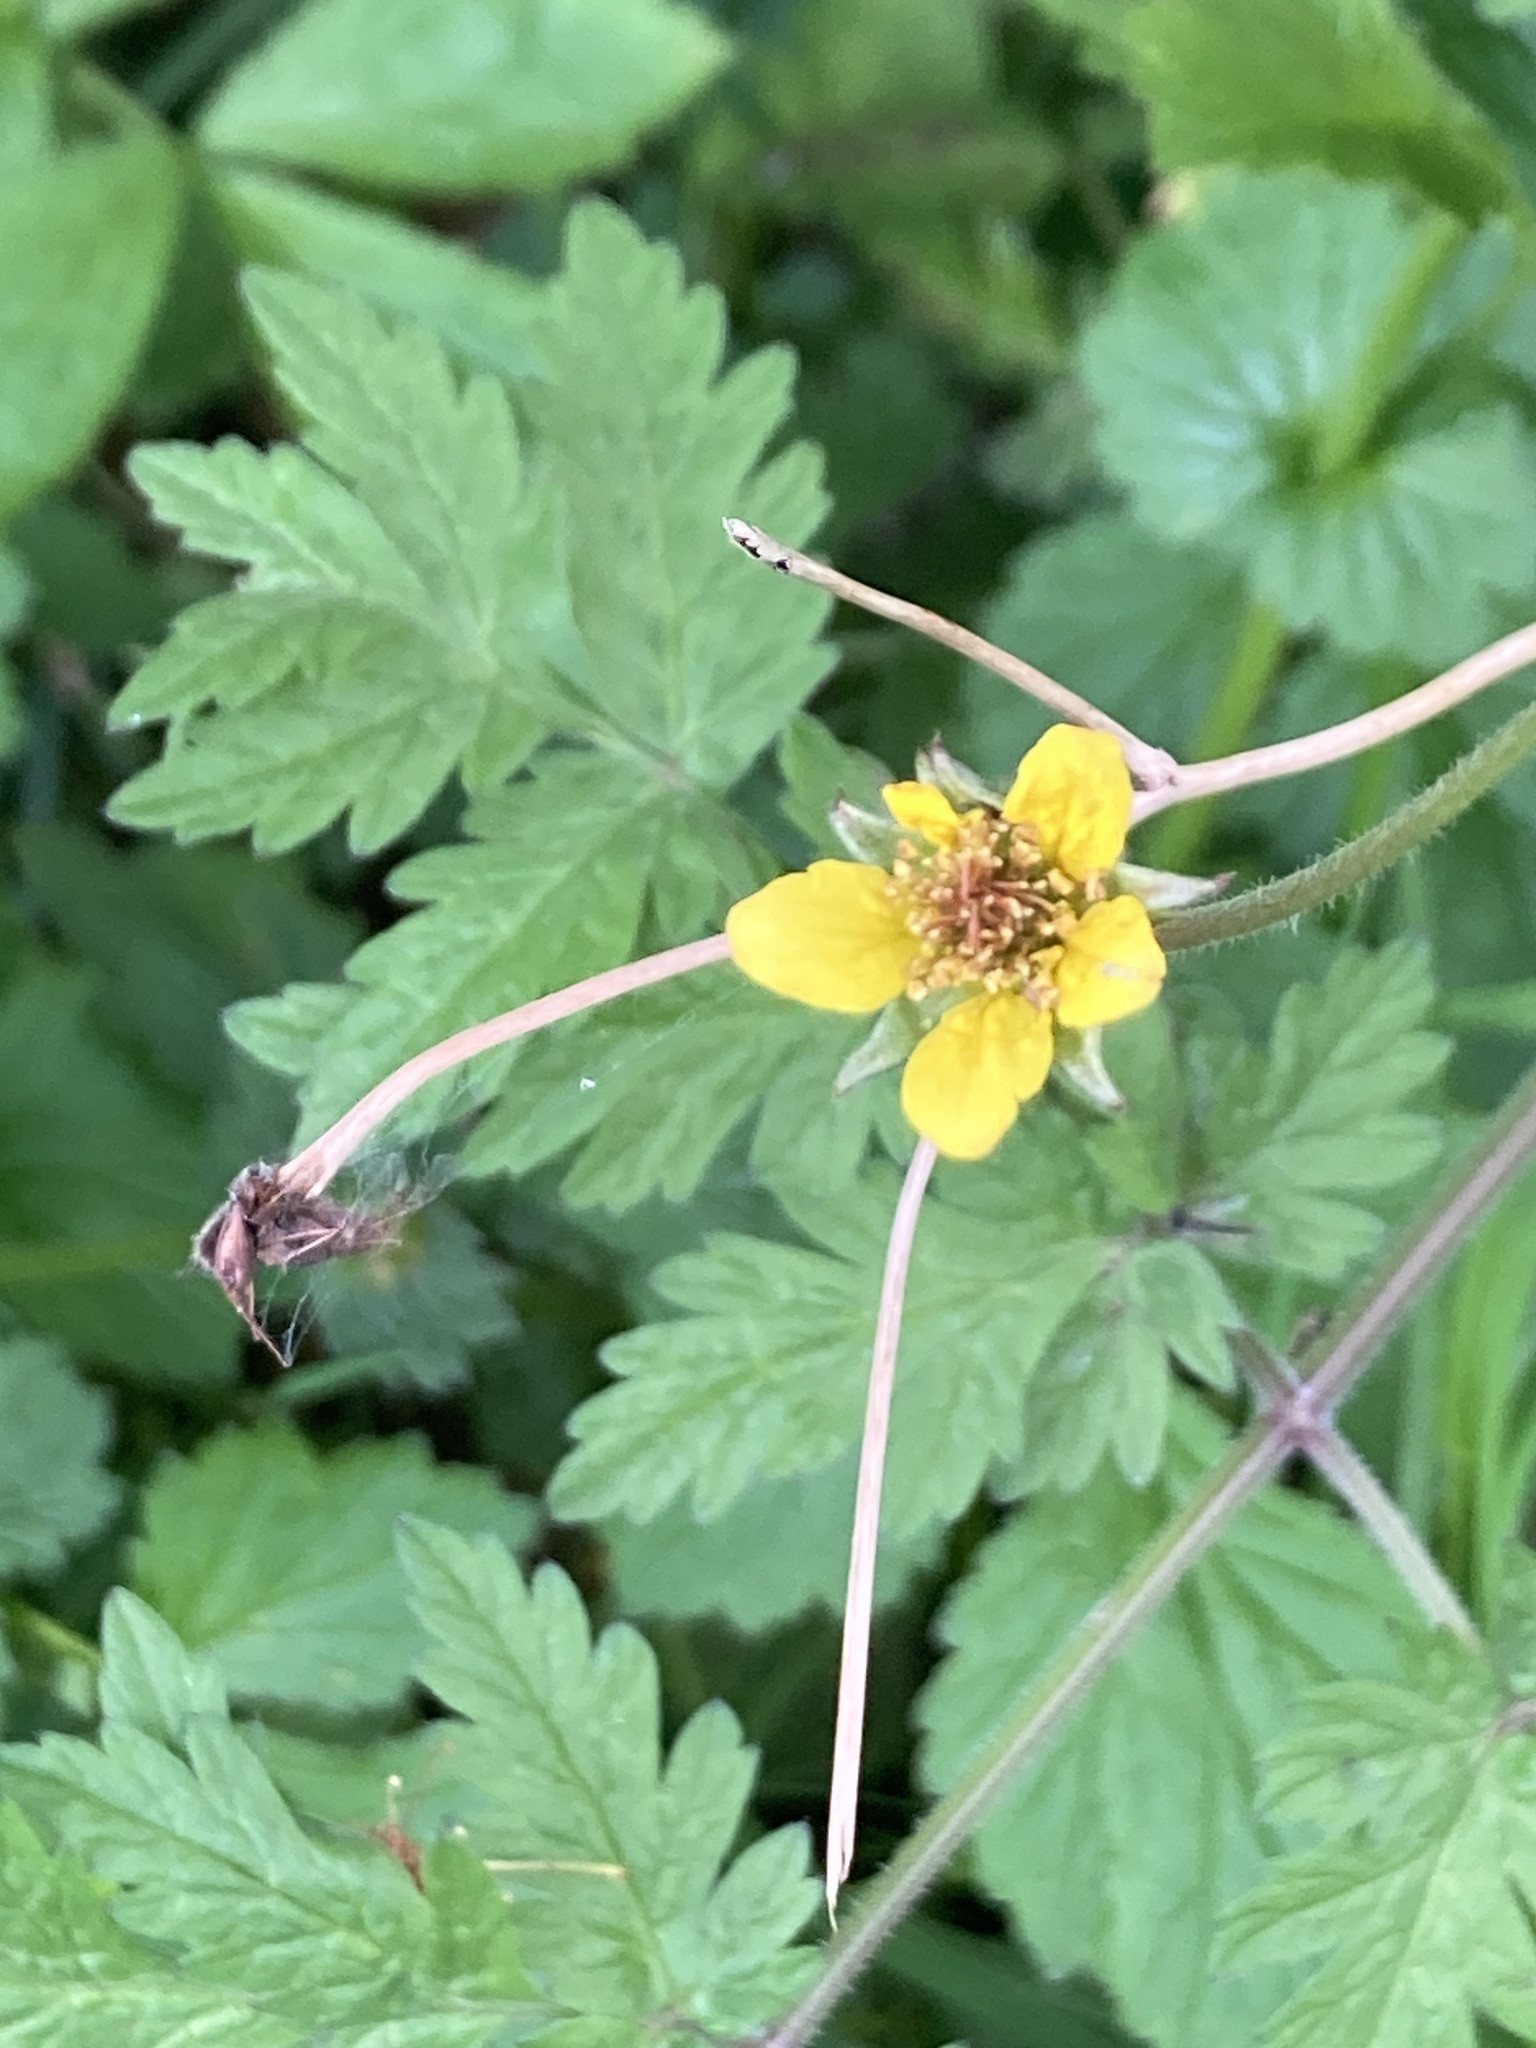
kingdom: Plantae
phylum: Tracheophyta
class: Magnoliopsida
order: Rosales
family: Rosaceae
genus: Geum
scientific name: Geum urbanum
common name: Wood avens
